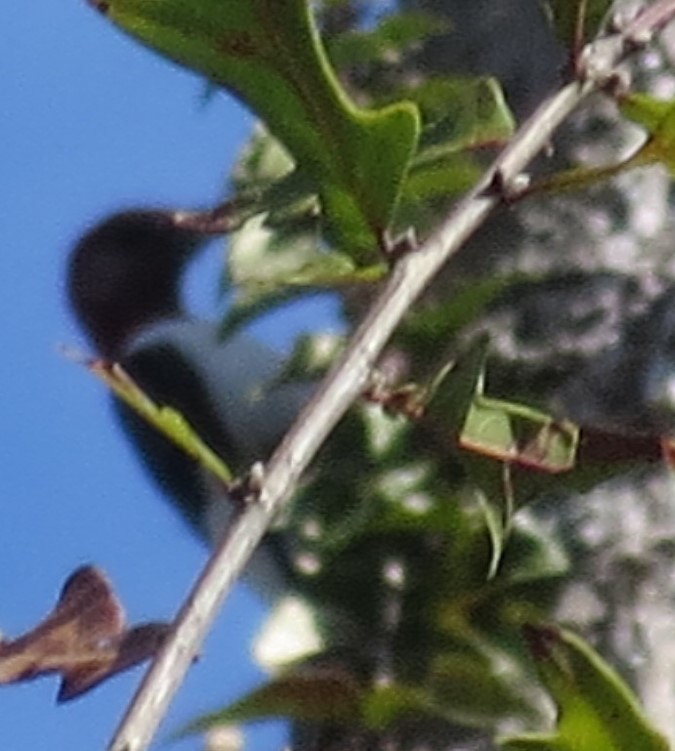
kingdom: Animalia
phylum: Chordata
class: Aves
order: Piciformes
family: Picidae
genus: Melanerpes
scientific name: Melanerpes erythrocephalus
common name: Red-headed woodpecker
